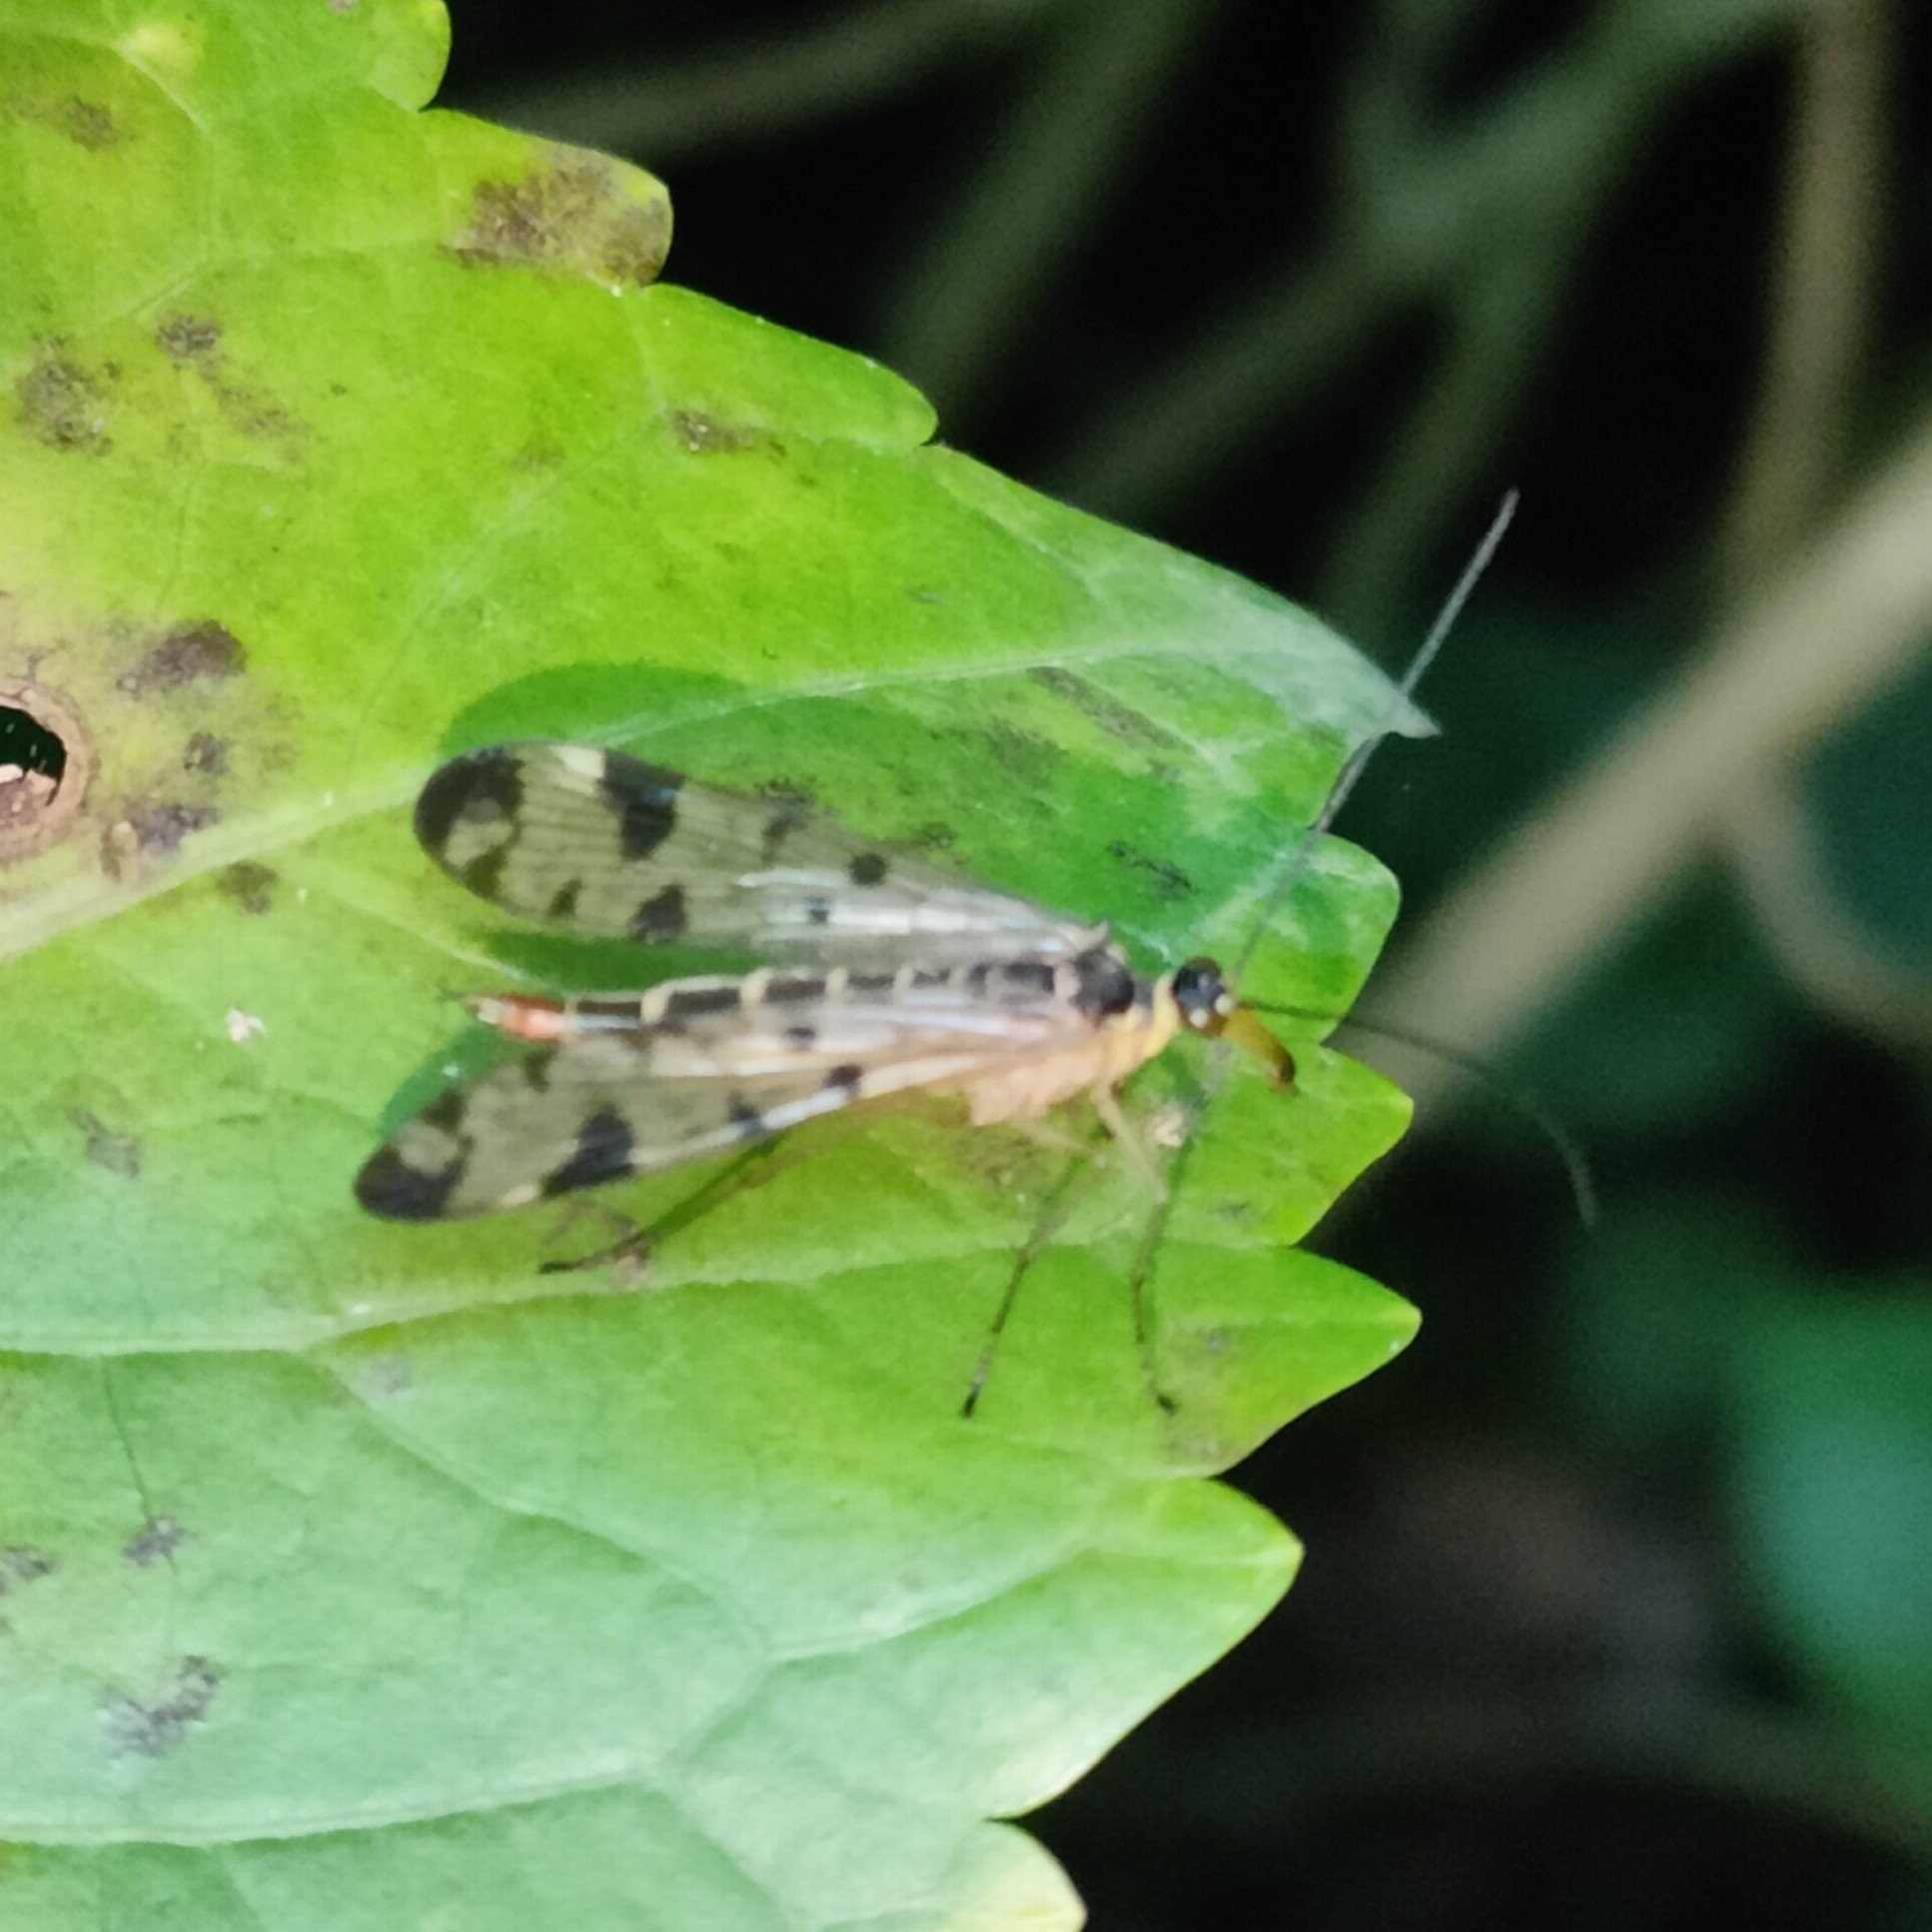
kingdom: Animalia
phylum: Arthropoda
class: Insecta
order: Mecoptera
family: Panorpidae
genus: Panorpa
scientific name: Panorpa communis
